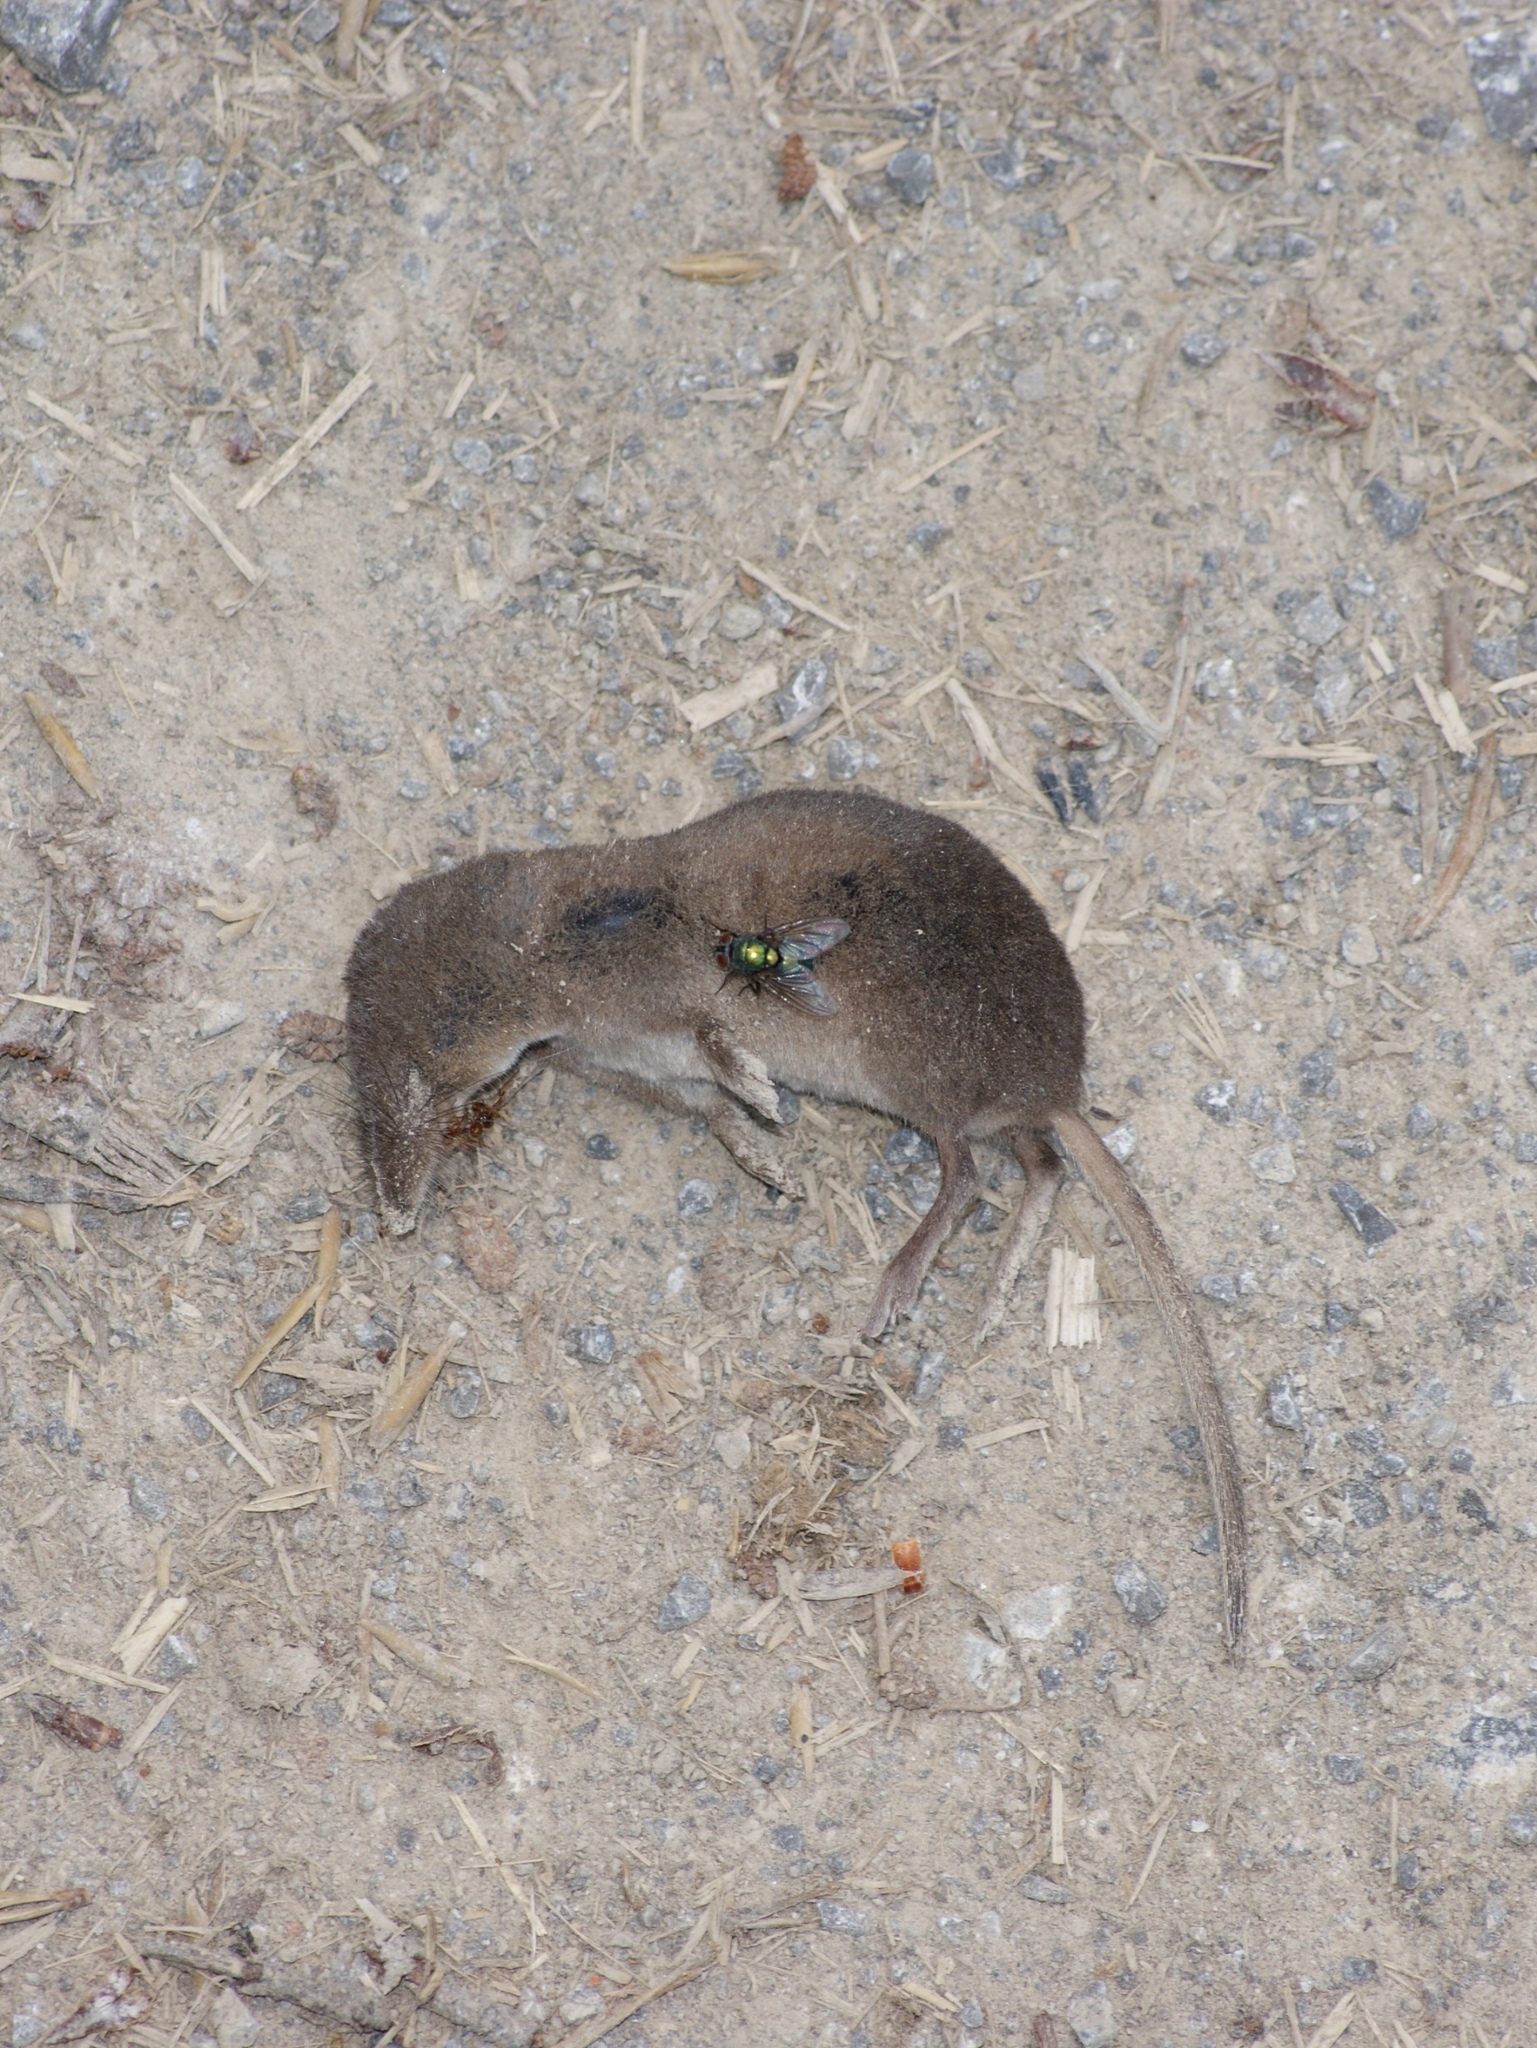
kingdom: Animalia
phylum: Chordata
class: Mammalia
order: Soricomorpha
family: Soricidae
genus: Sorex
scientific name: Sorex minutus
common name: Eurasian pygmy shrew
